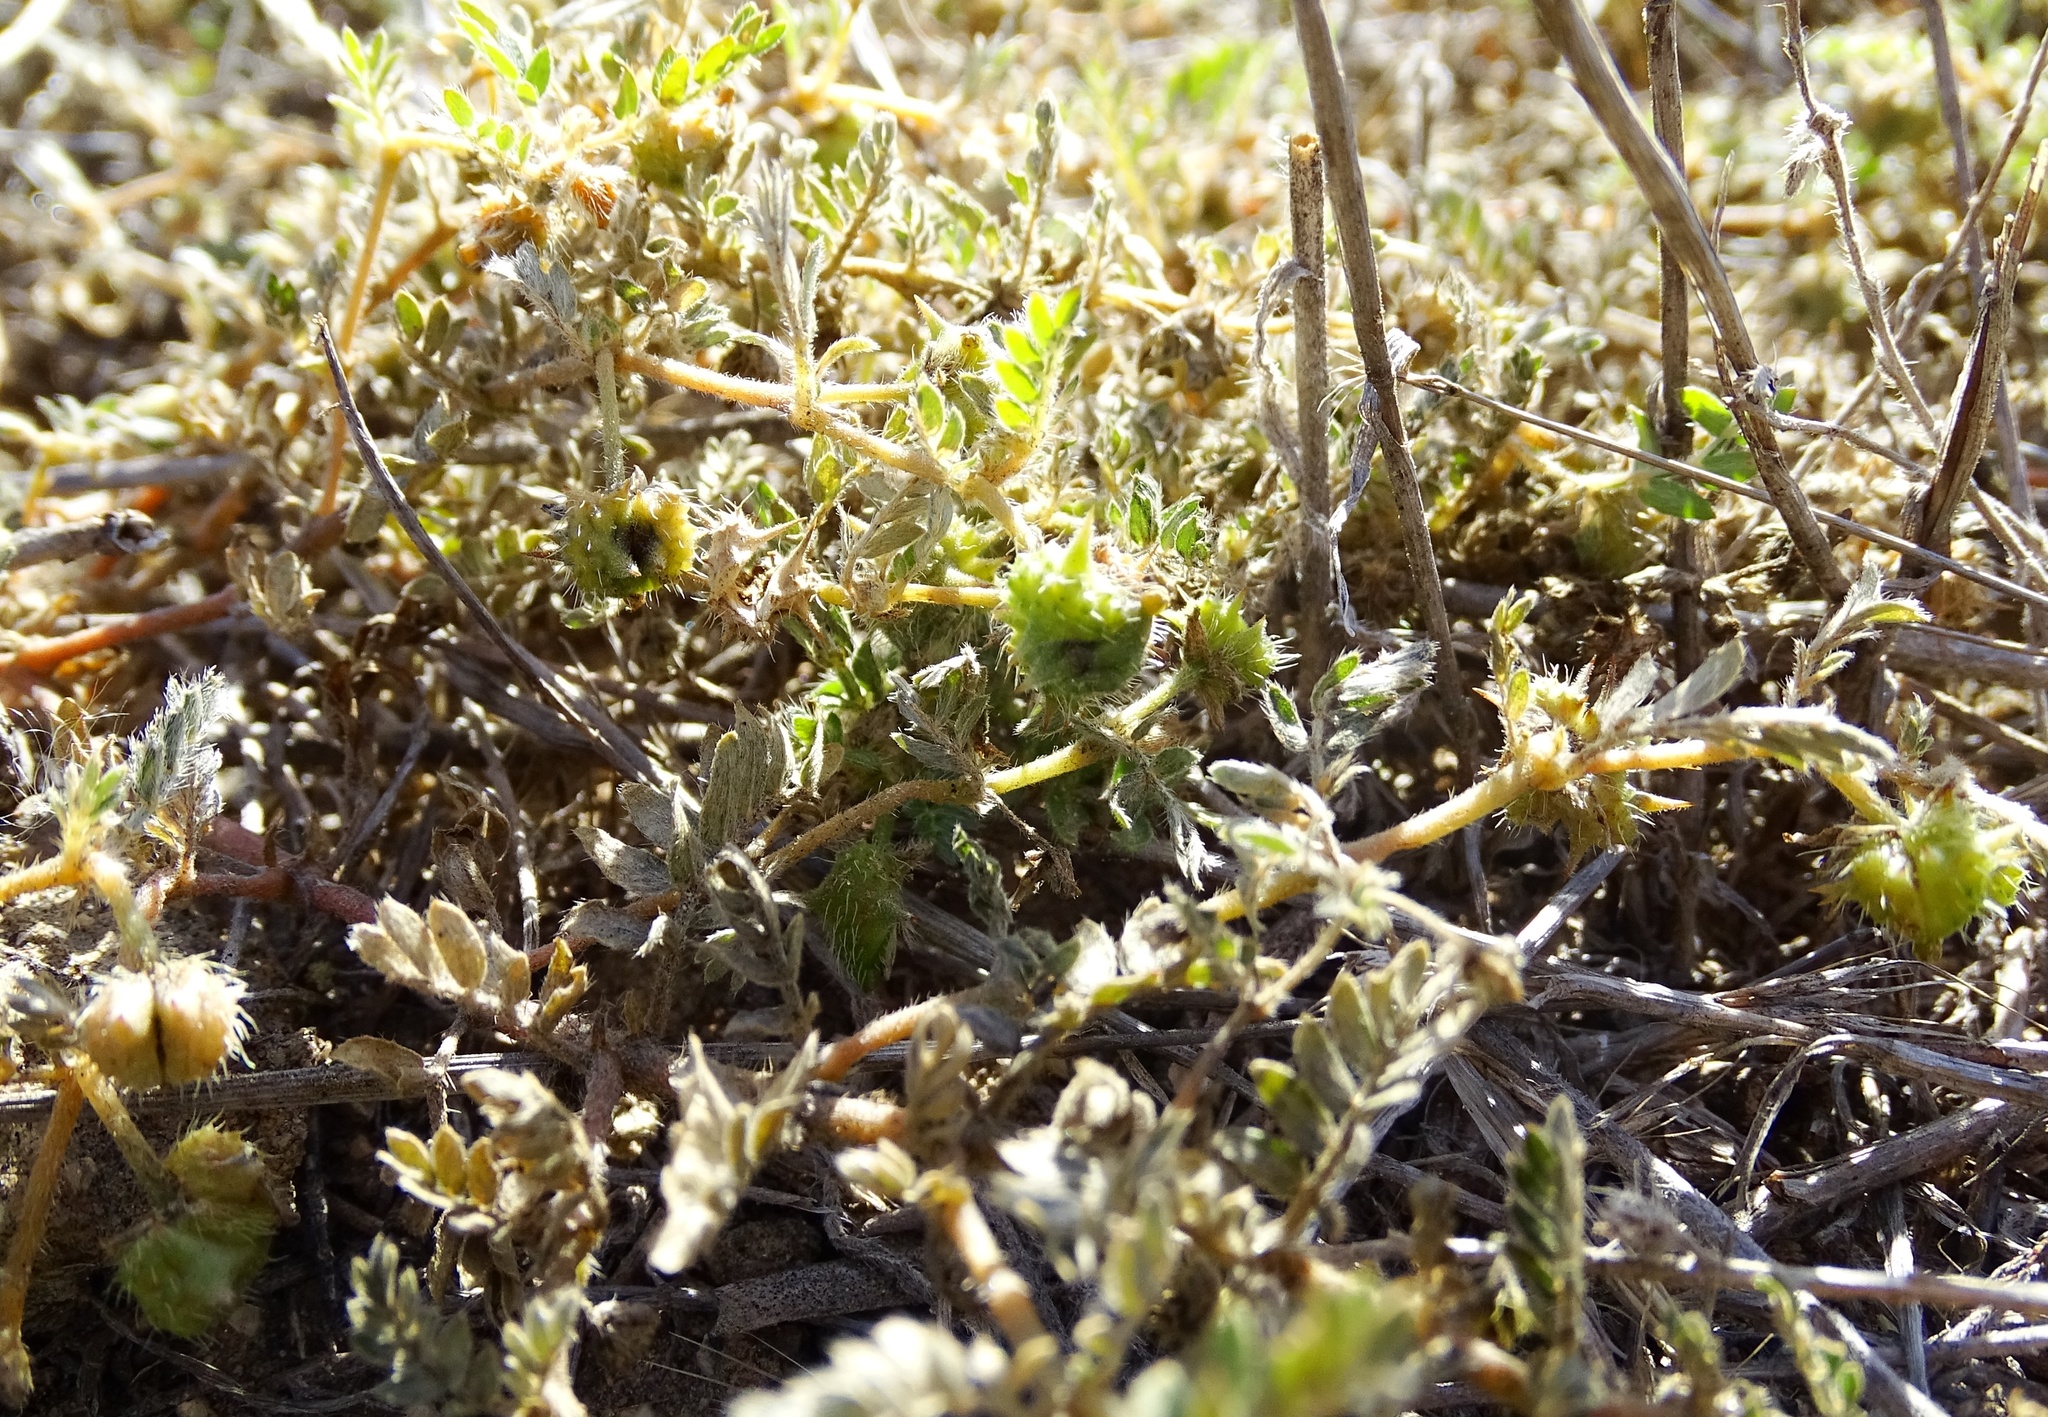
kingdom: Plantae
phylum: Tracheophyta
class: Magnoliopsida
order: Zygophyllales
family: Zygophyllaceae
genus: Tribulus
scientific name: Tribulus terrestris
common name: Puncturevine
